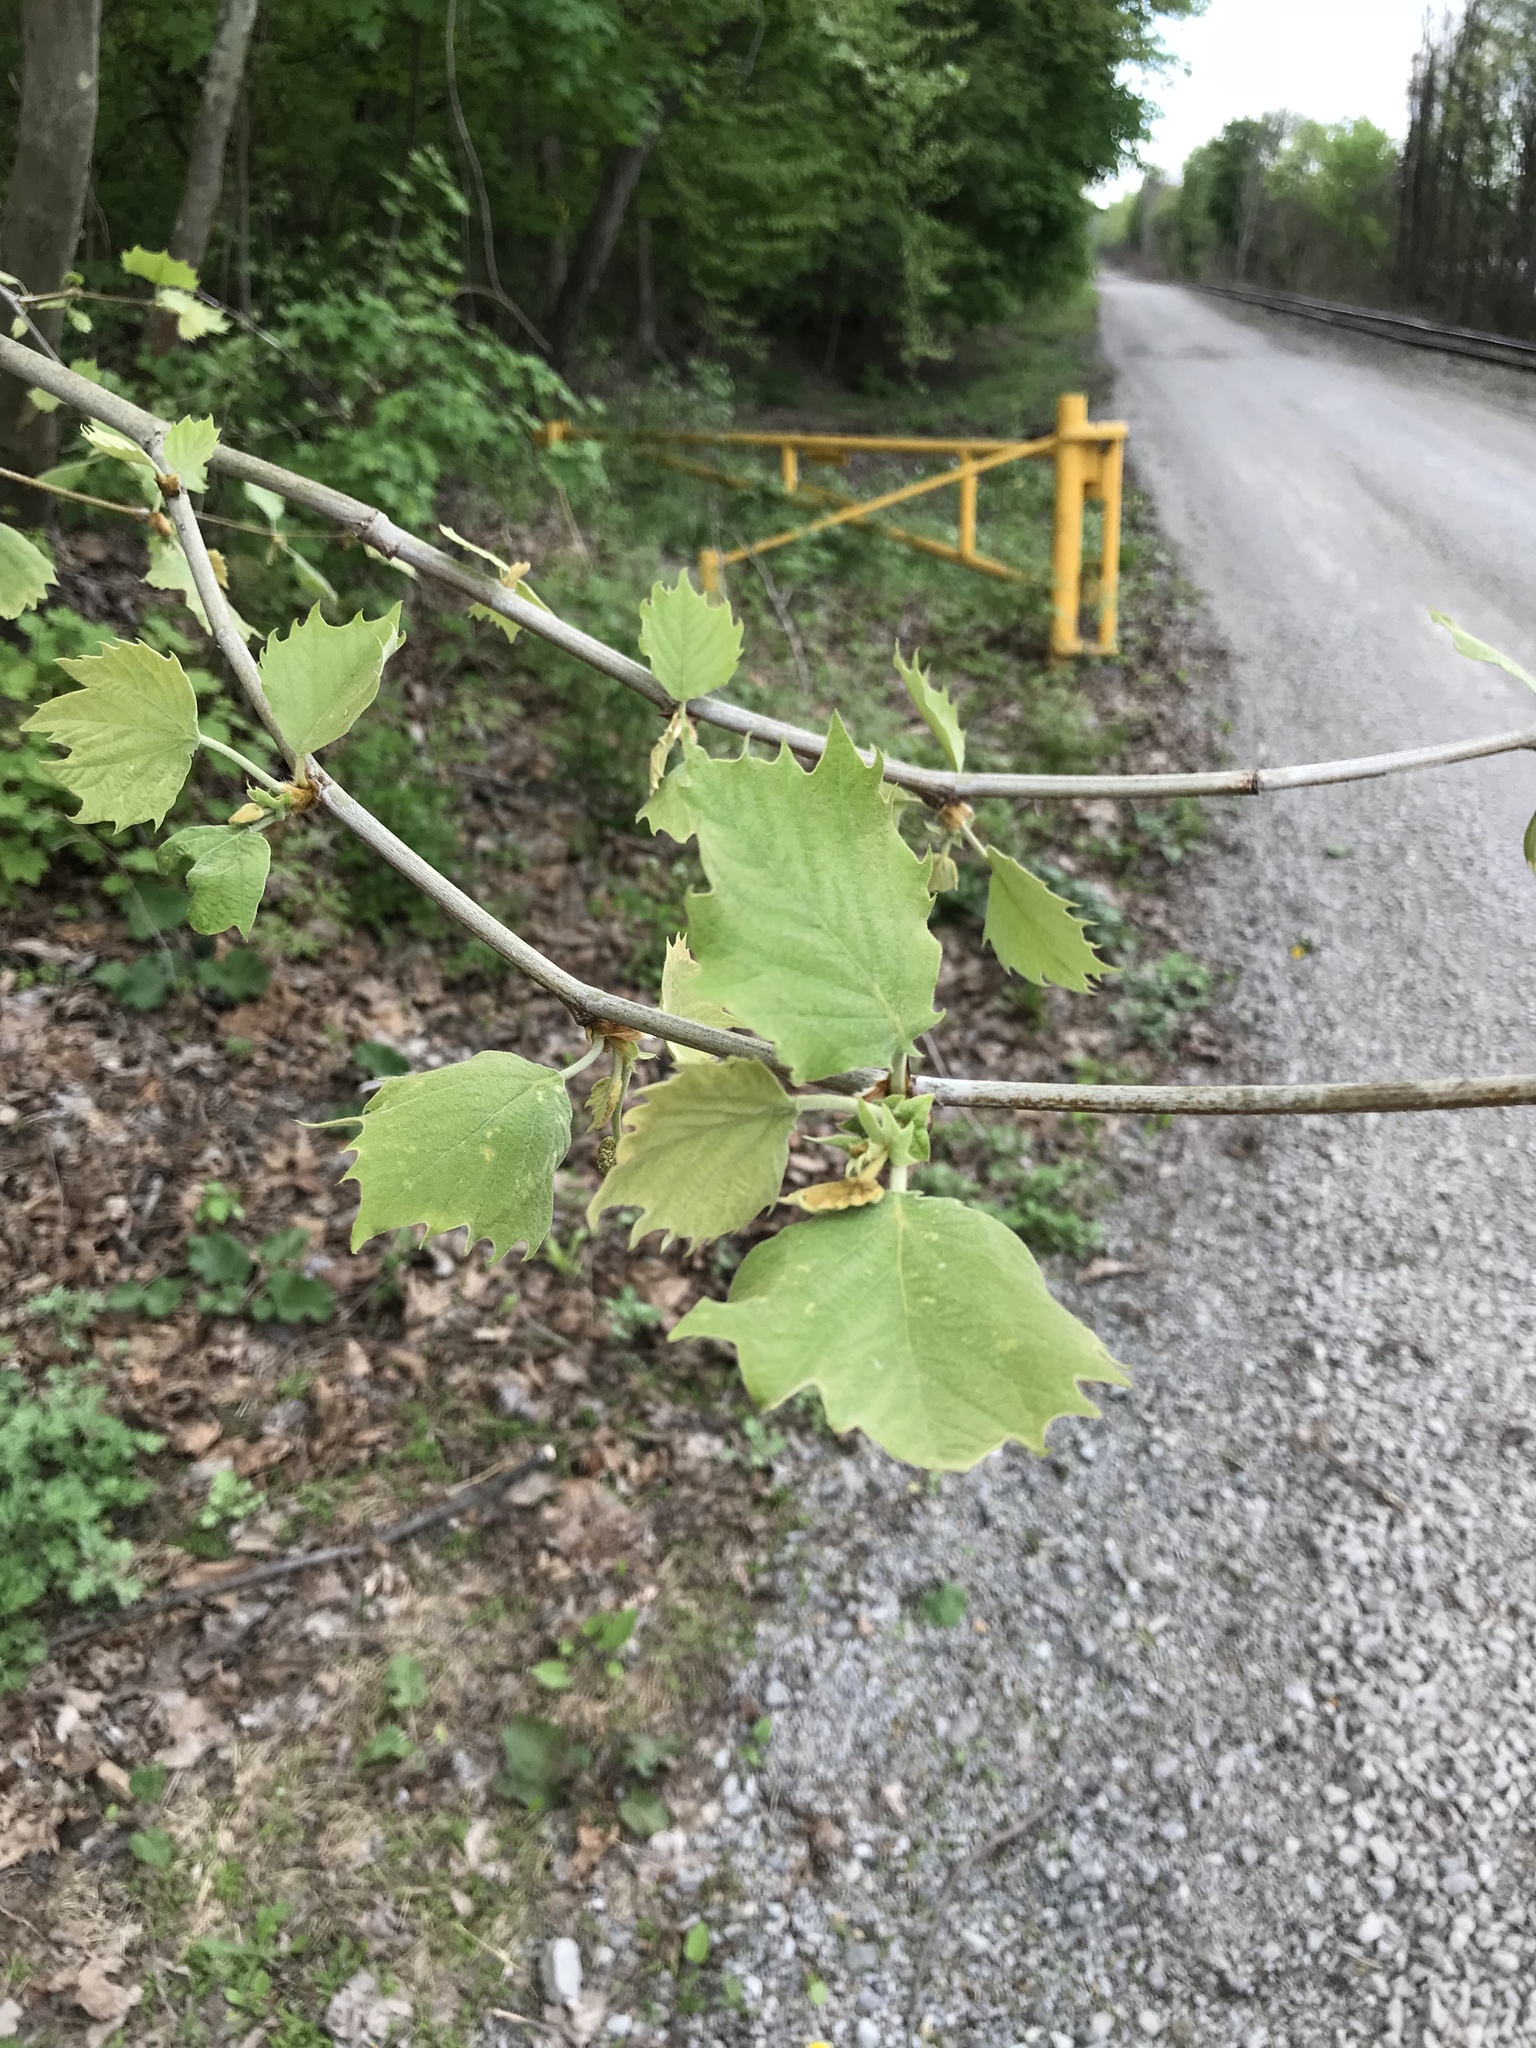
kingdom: Plantae
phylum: Tracheophyta
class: Magnoliopsida
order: Proteales
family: Platanaceae
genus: Platanus
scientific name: Platanus occidentalis
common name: American sycamore
